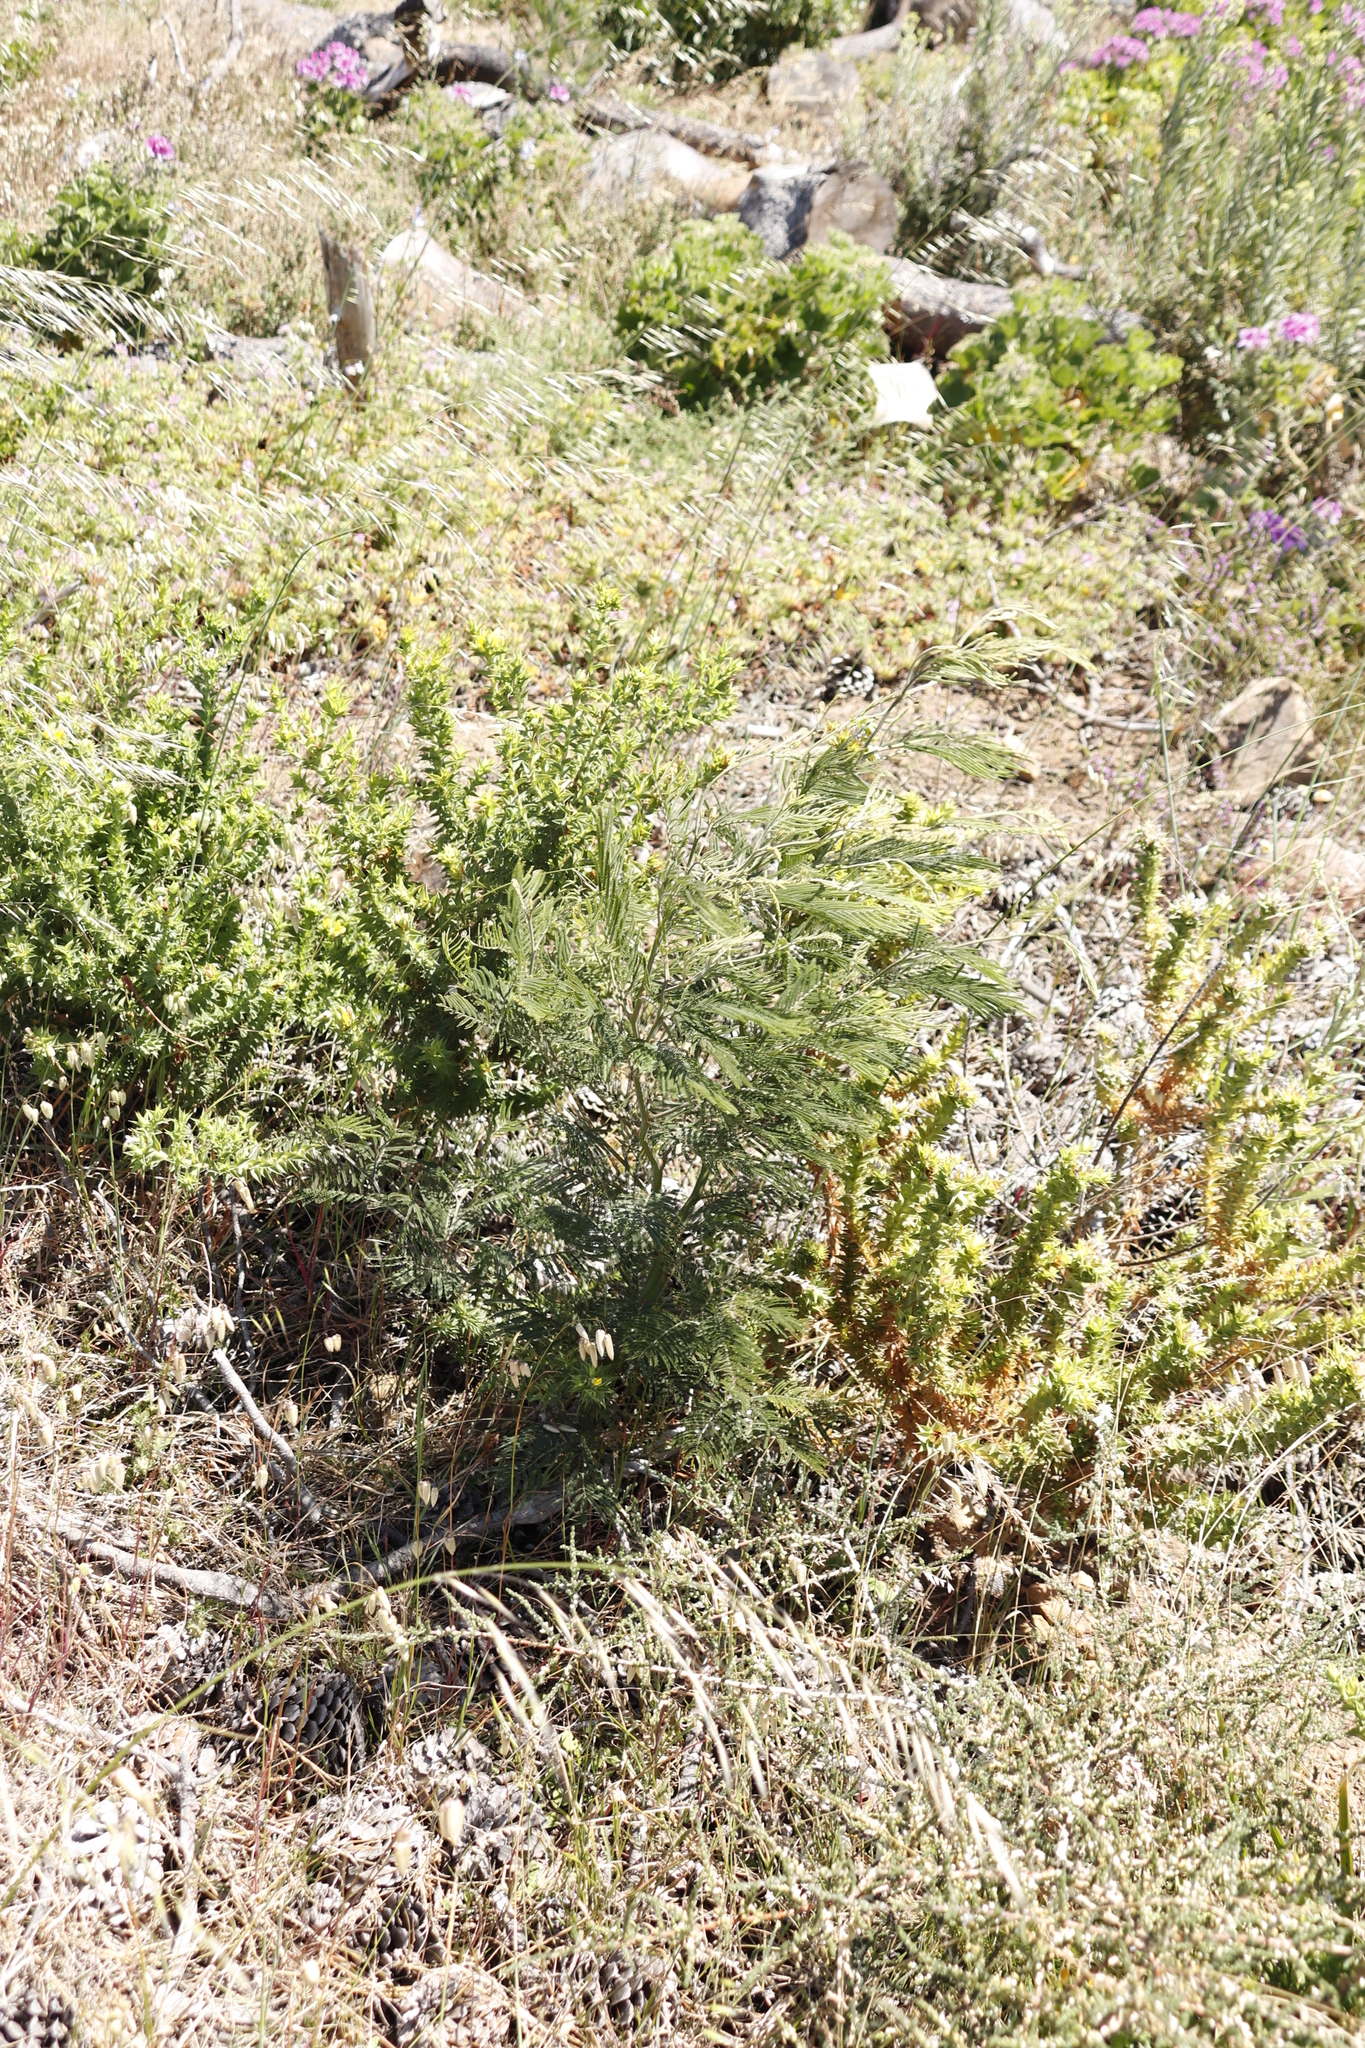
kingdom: Plantae
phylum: Tracheophyta
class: Magnoliopsida
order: Fabales
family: Fabaceae
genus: Acacia
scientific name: Acacia mearnsii
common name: Black wattle
